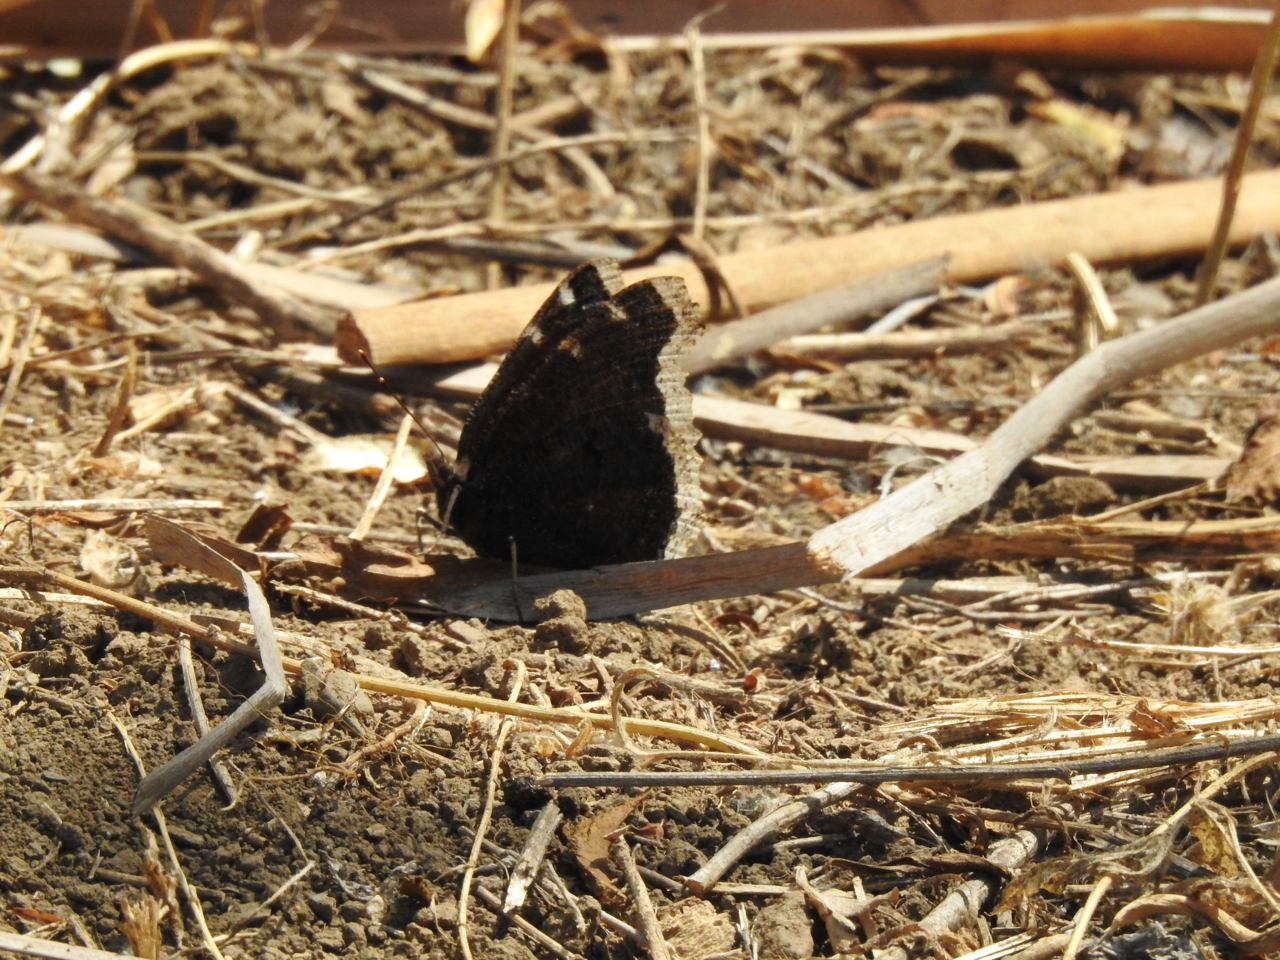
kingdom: Animalia
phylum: Arthropoda
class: Insecta
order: Lepidoptera
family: Nymphalidae
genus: Nymphalis
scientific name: Nymphalis antiopa
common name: Camberwell beauty
